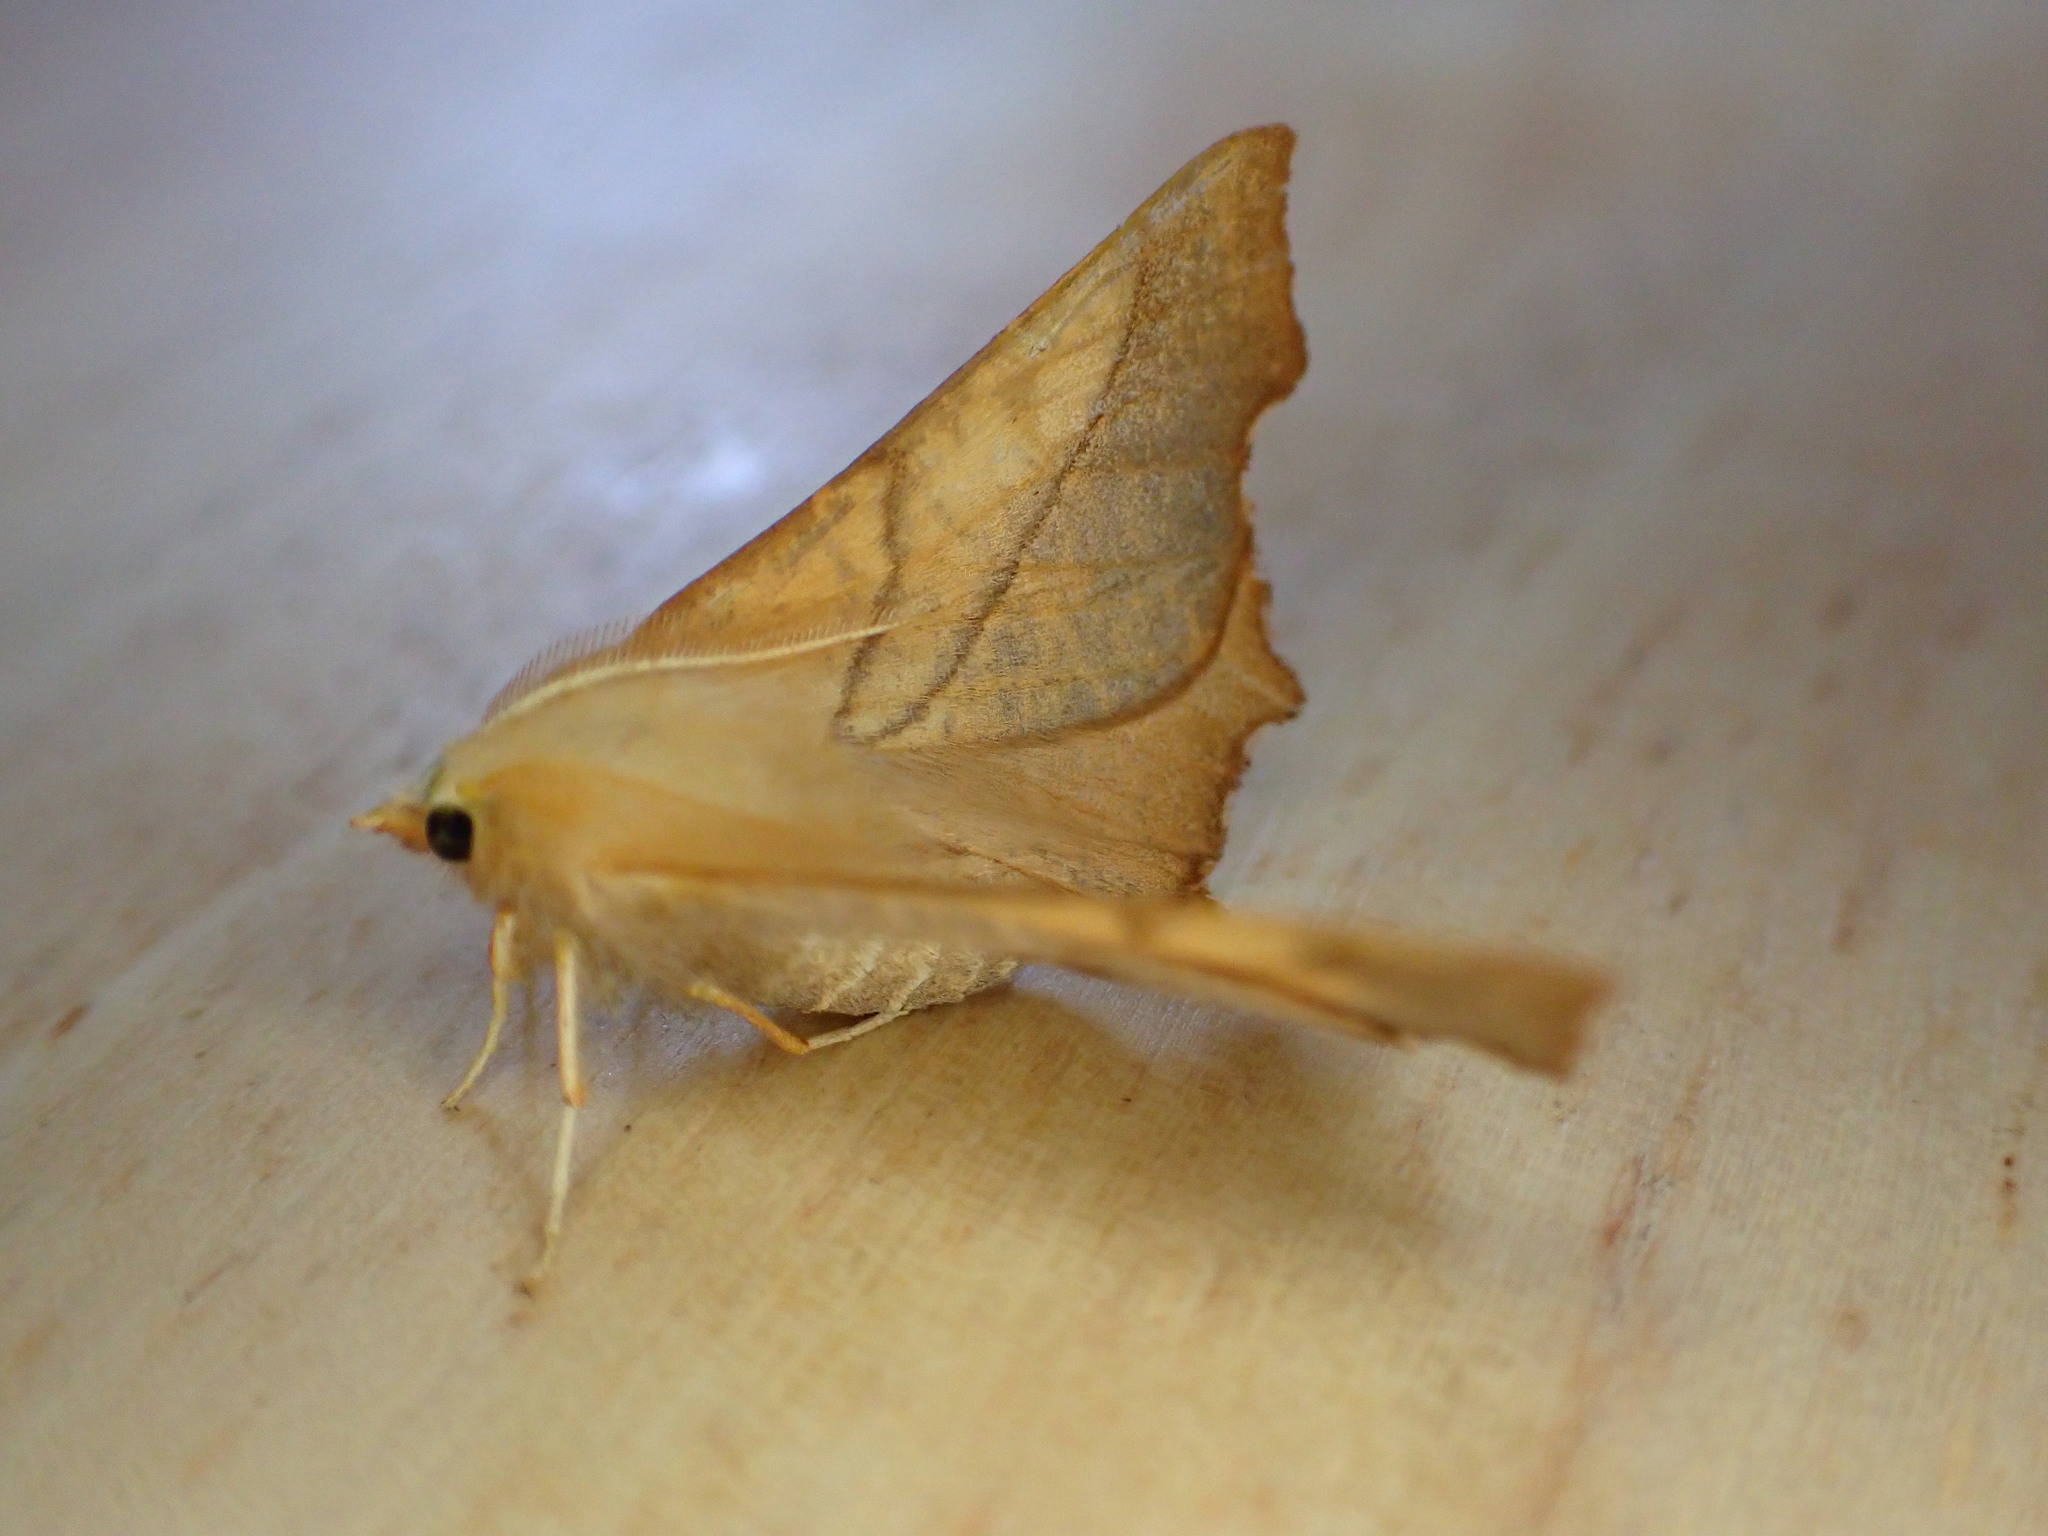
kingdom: Animalia
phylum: Arthropoda
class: Insecta
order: Lepidoptera
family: Geometridae
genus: Ennomos
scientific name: Ennomos fuscantaria
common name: Dusky thorn
